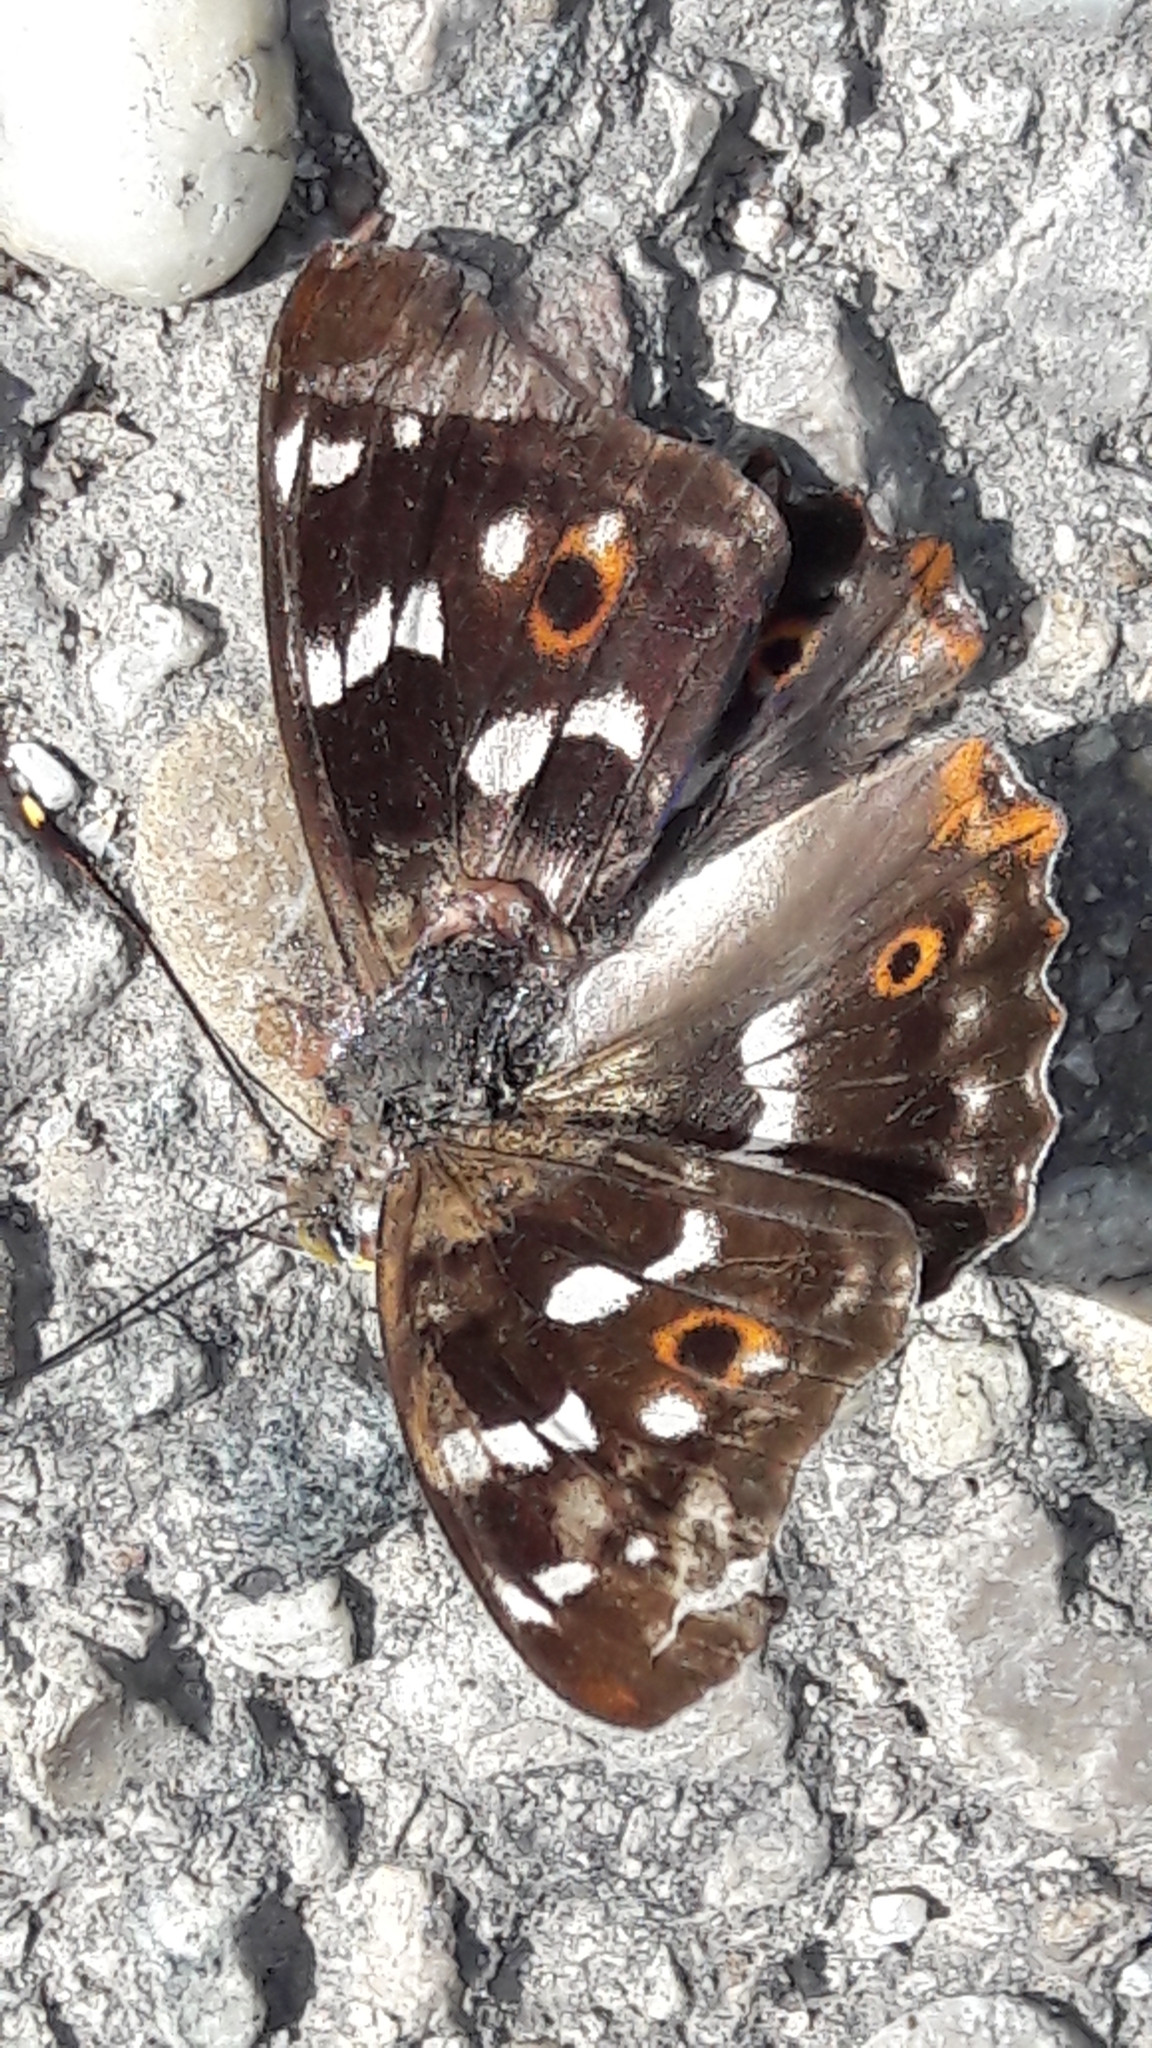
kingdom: Animalia
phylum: Arthropoda
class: Insecta
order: Lepidoptera
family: Nymphalidae
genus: Apatura
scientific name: Apatura ilia
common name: Lesser purple emperor
